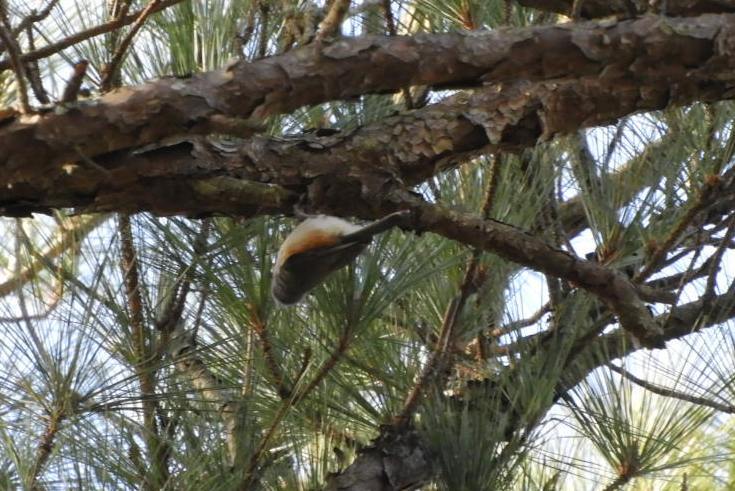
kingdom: Animalia
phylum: Chordata
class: Aves
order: Passeriformes
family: Paridae
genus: Baeolophus
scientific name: Baeolophus bicolor
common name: Tufted titmouse
